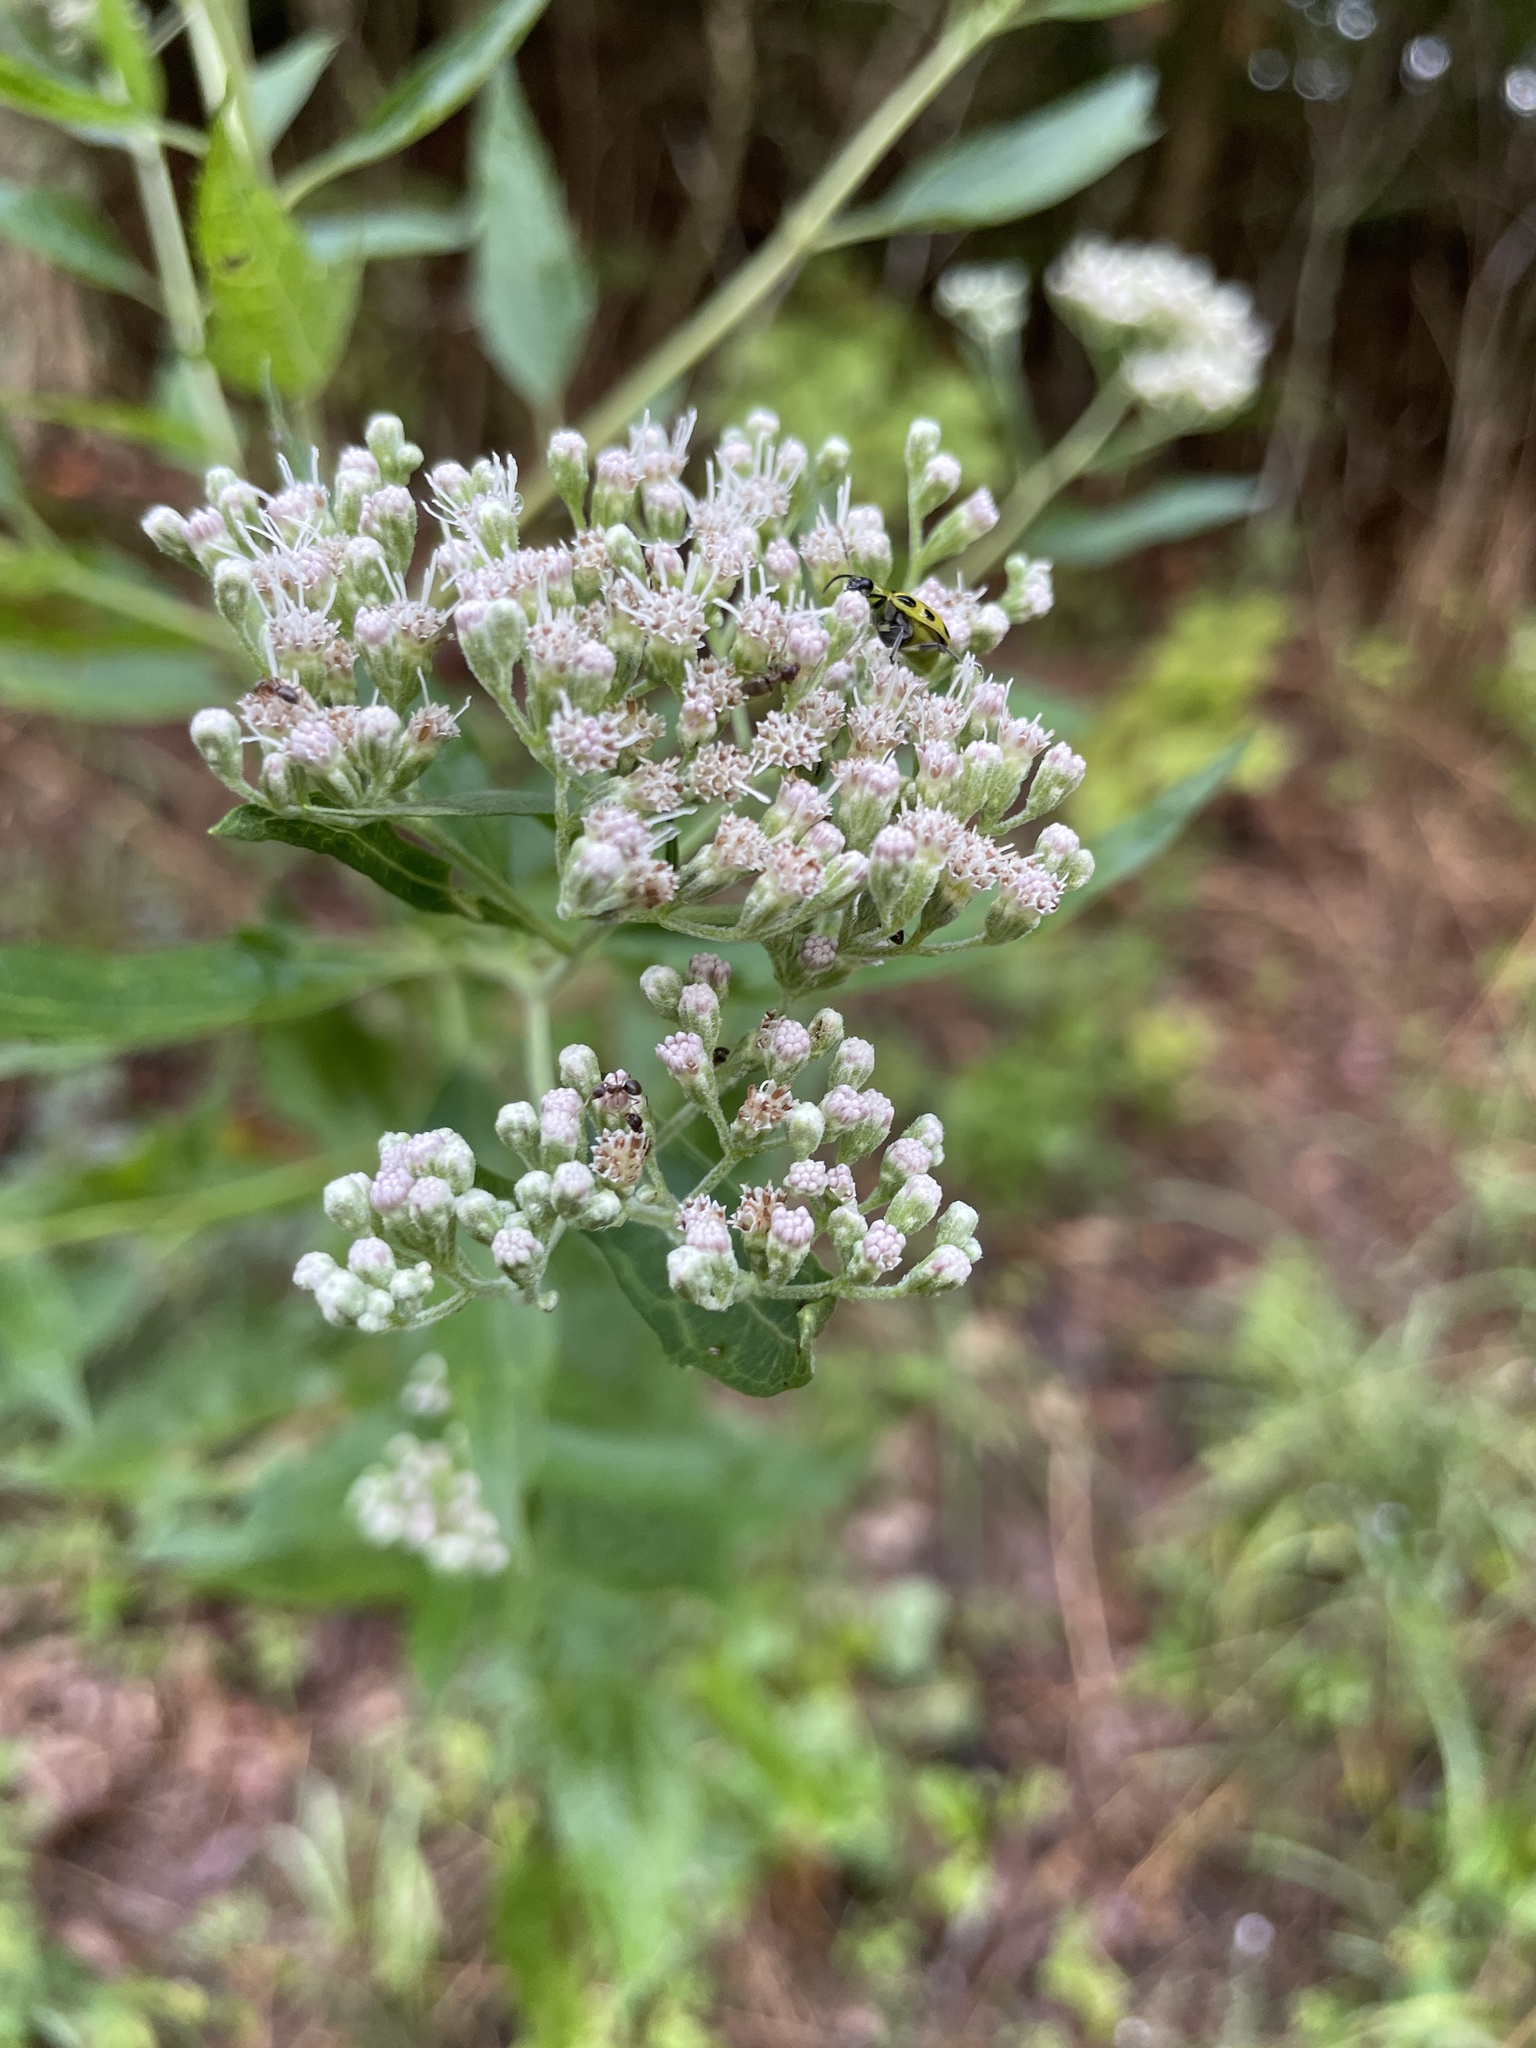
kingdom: Plantae
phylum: Tracheophyta
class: Magnoliopsida
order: Asterales
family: Asteraceae
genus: Eupatorium
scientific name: Eupatorium serotinum
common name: Late boneset
